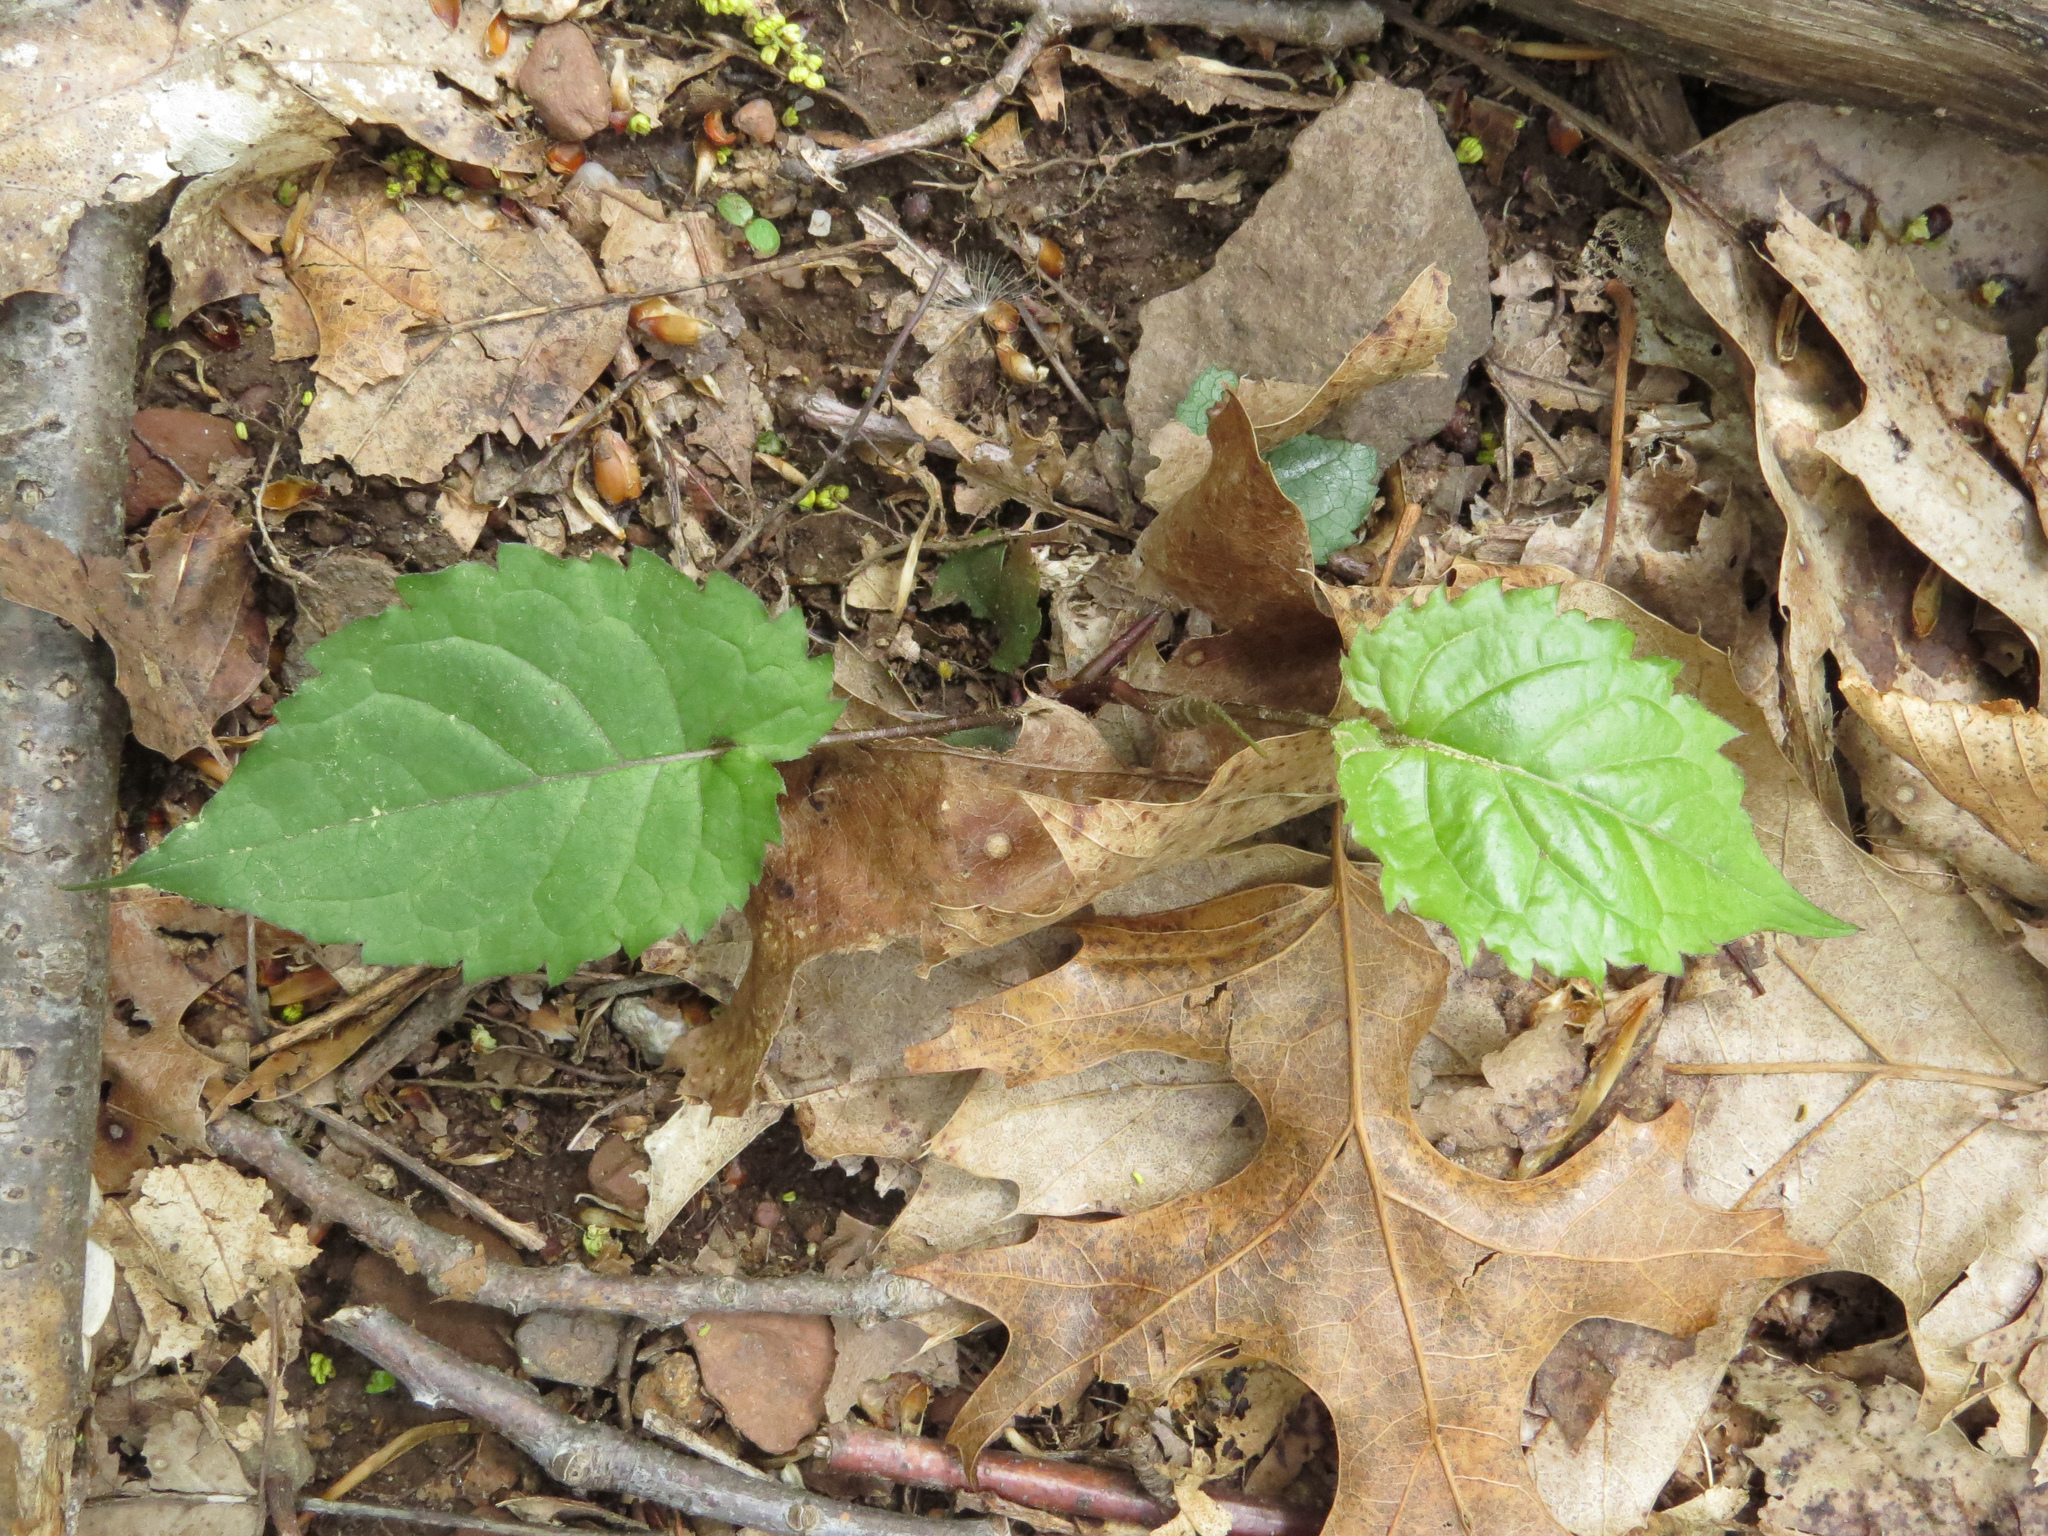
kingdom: Plantae
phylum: Tracheophyta
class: Magnoliopsida
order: Asterales
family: Asteraceae
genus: Eurybia
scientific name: Eurybia divaricata
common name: White wood aster
